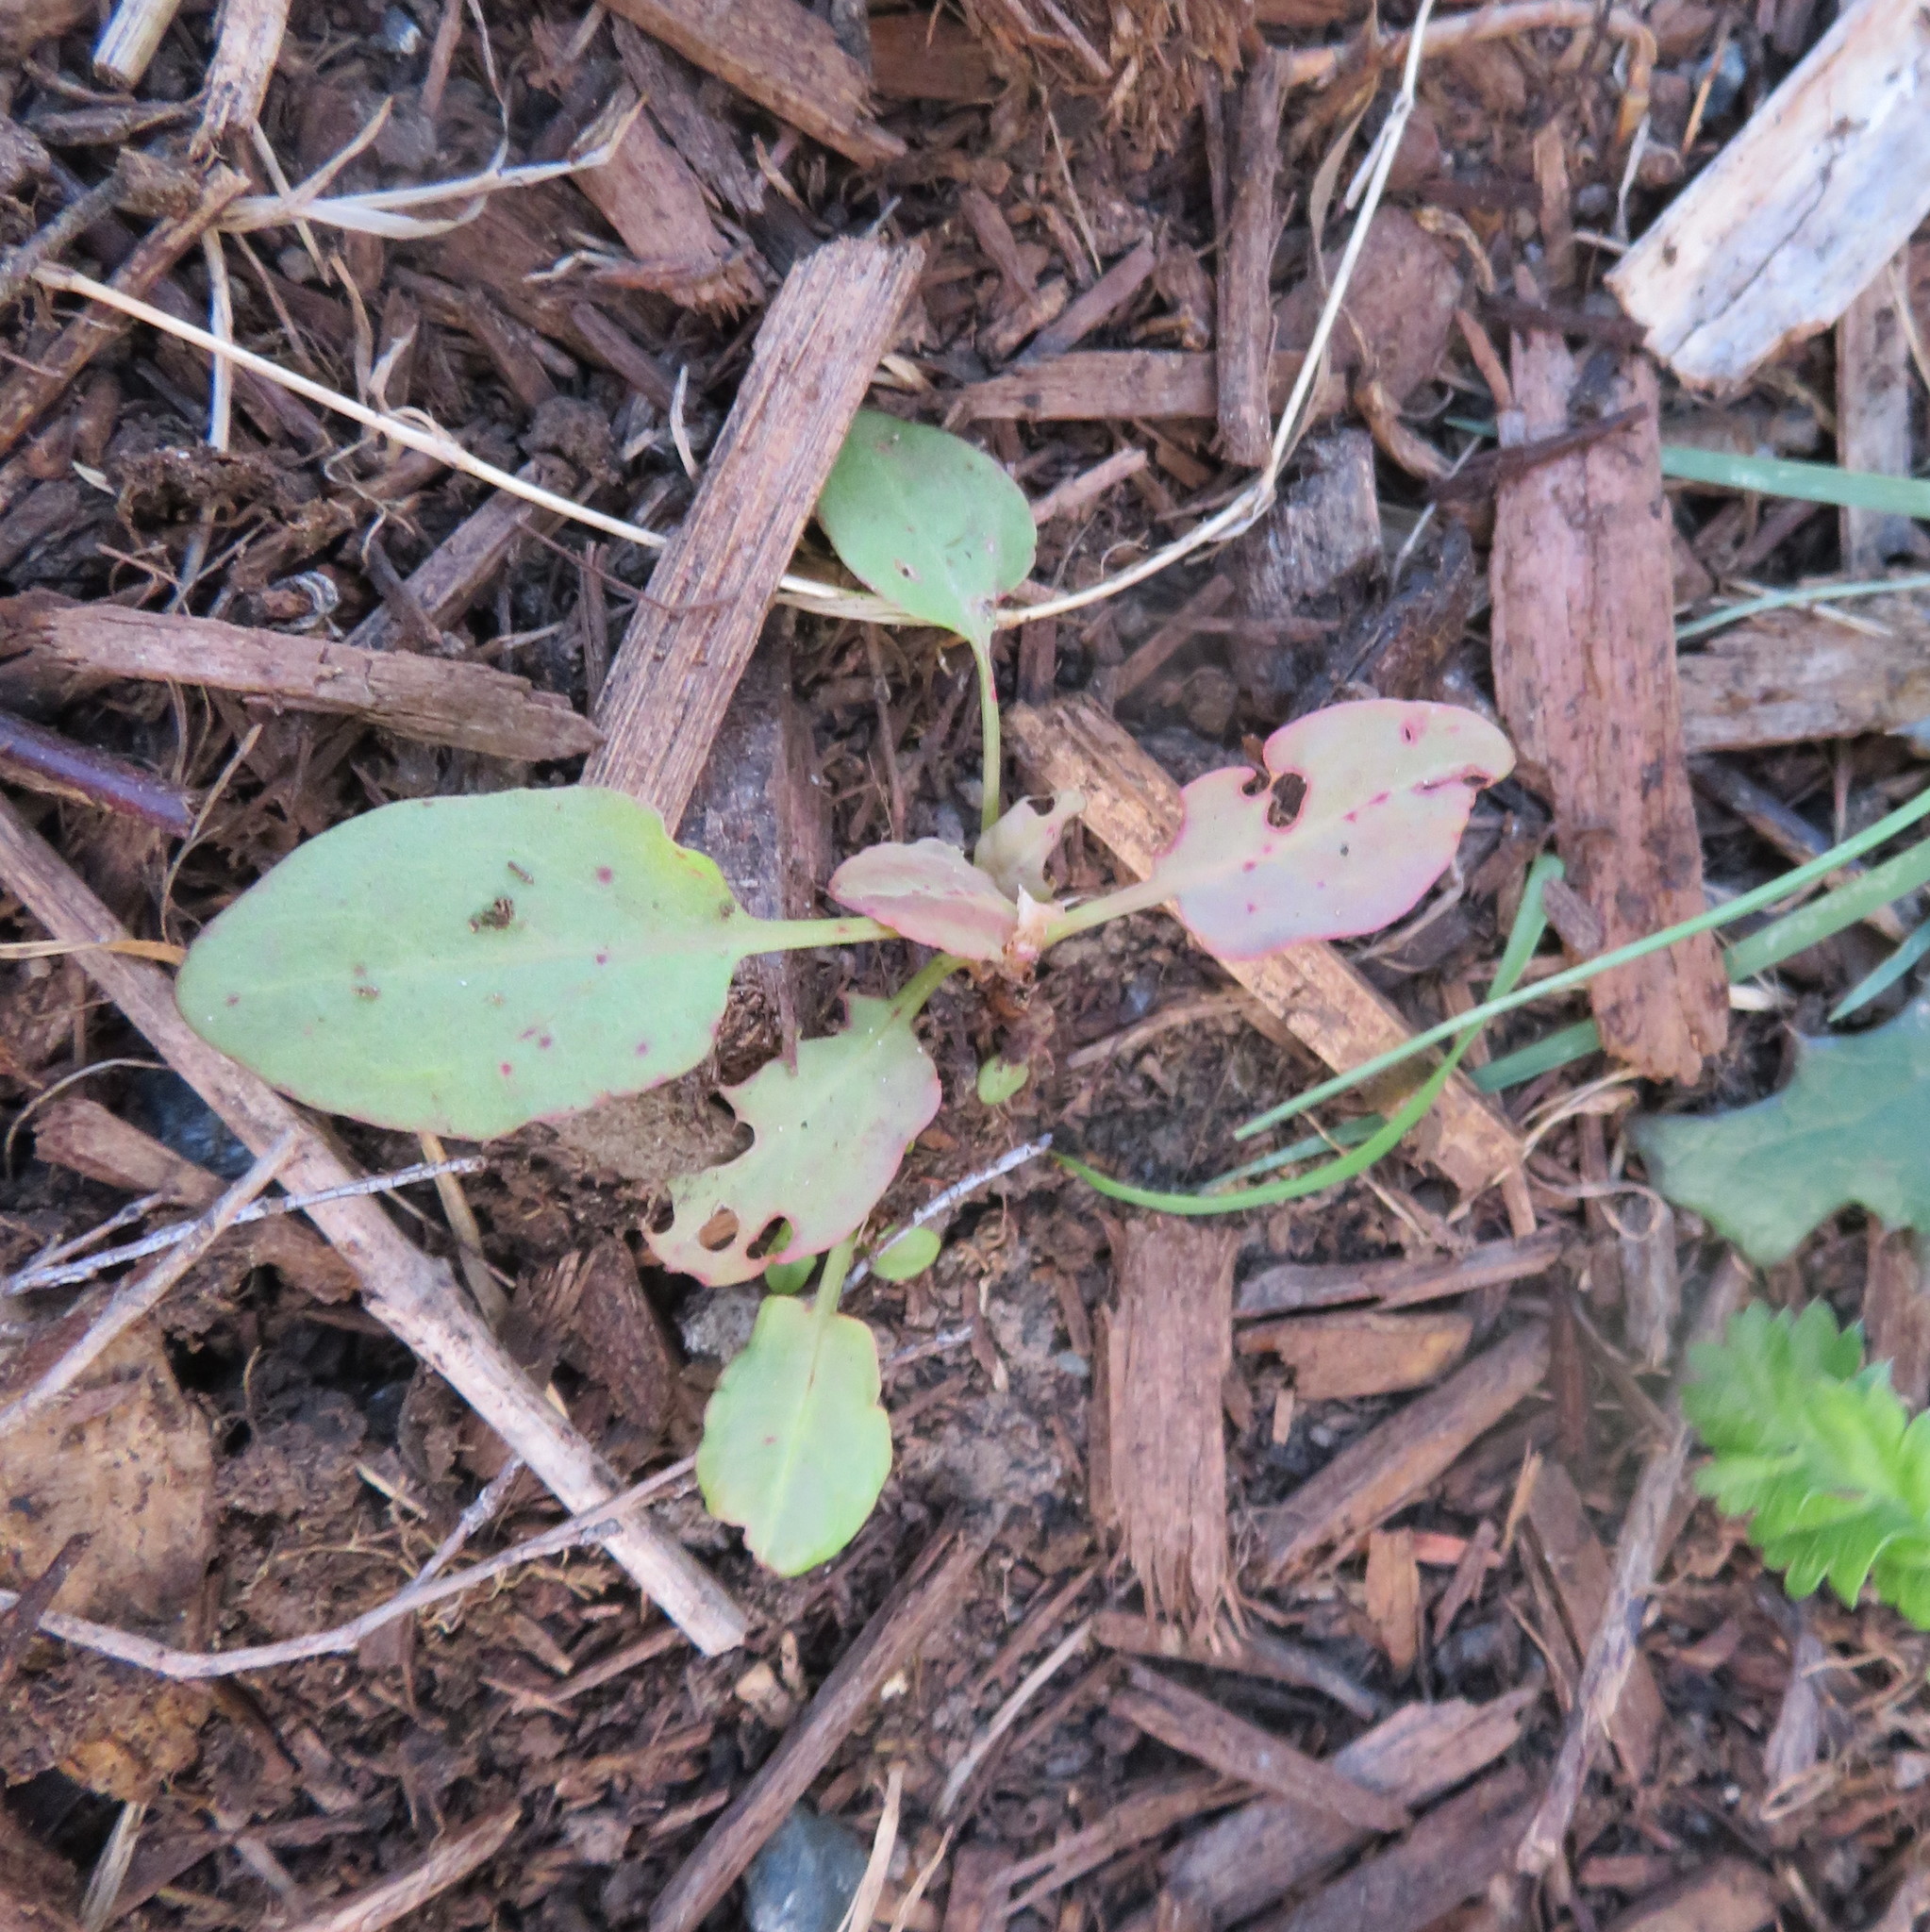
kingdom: Plantae
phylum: Tracheophyta
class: Magnoliopsida
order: Caryophyllales
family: Polygonaceae
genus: Rumex
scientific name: Rumex obtusifolius
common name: Bitter dock
